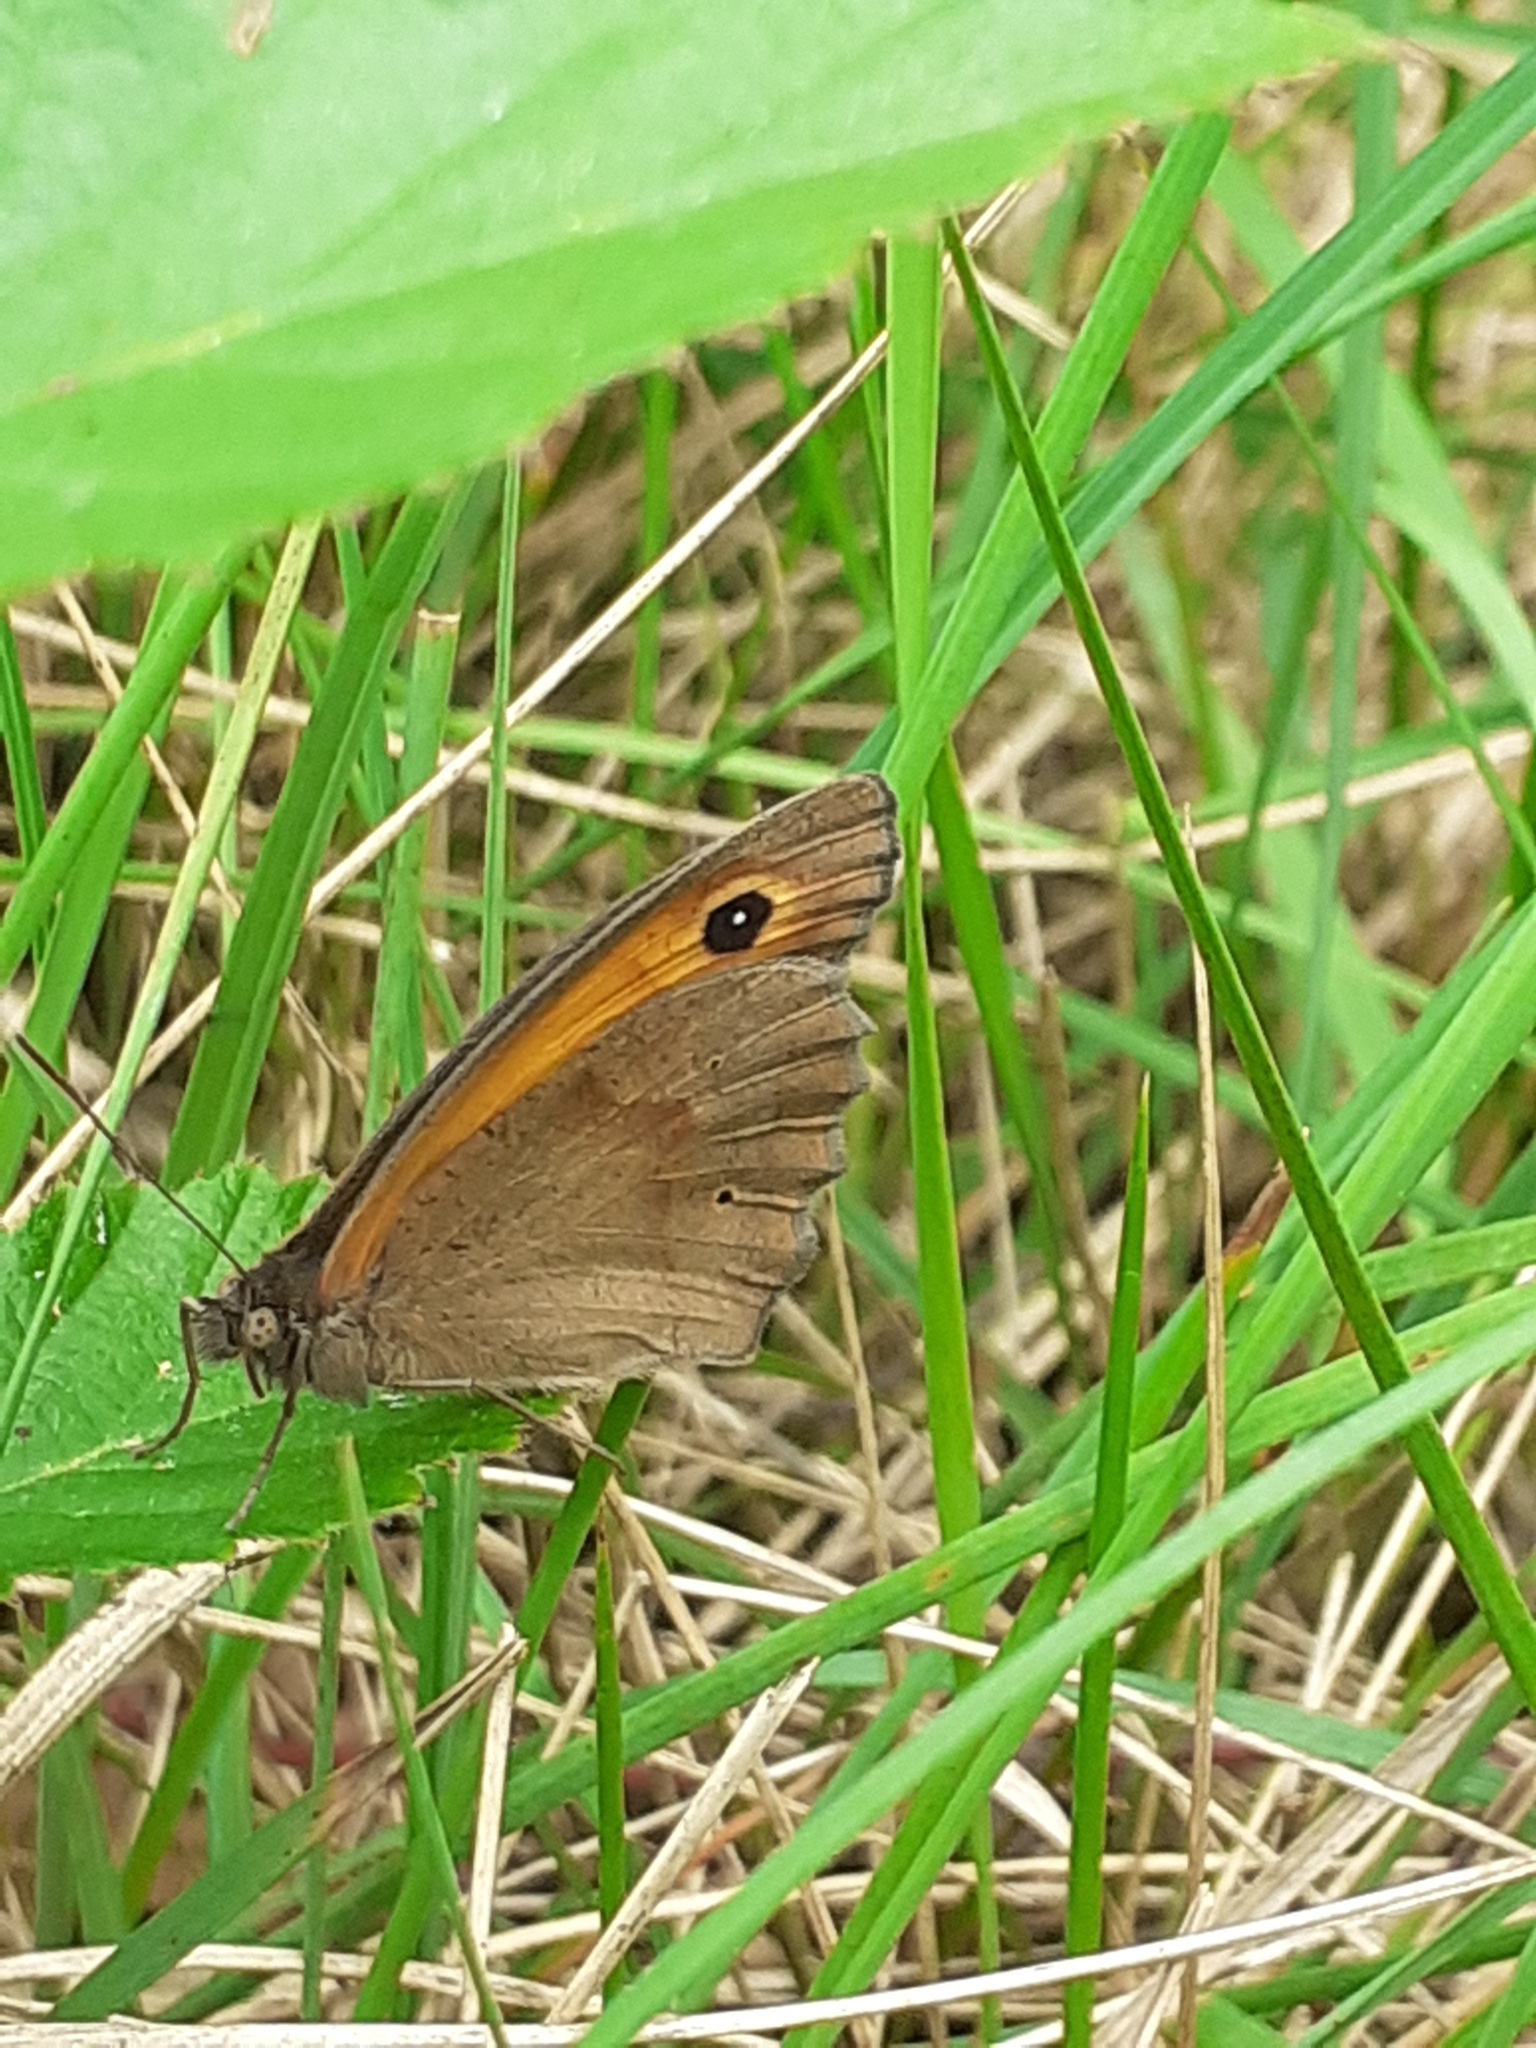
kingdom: Animalia
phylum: Arthropoda
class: Insecta
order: Lepidoptera
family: Nymphalidae
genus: Maniola
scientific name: Maniola jurtina
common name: Meadow brown
